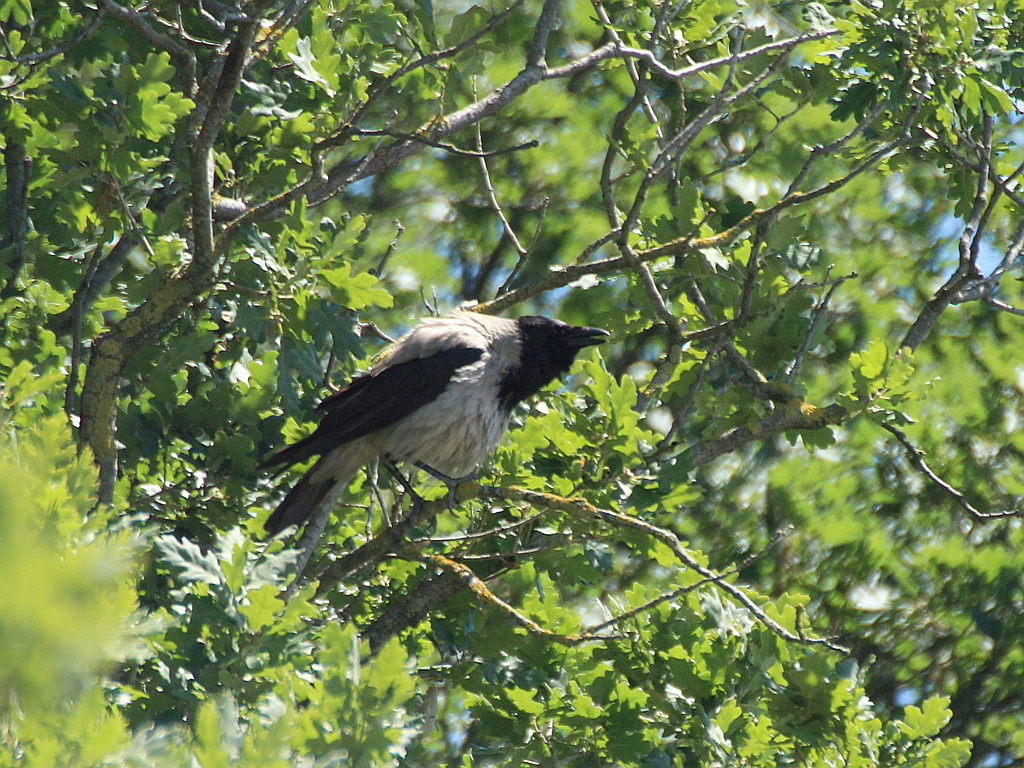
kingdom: Animalia
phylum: Chordata
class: Aves
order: Passeriformes
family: Corvidae
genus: Corvus
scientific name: Corvus cornix
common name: Hooded crow
